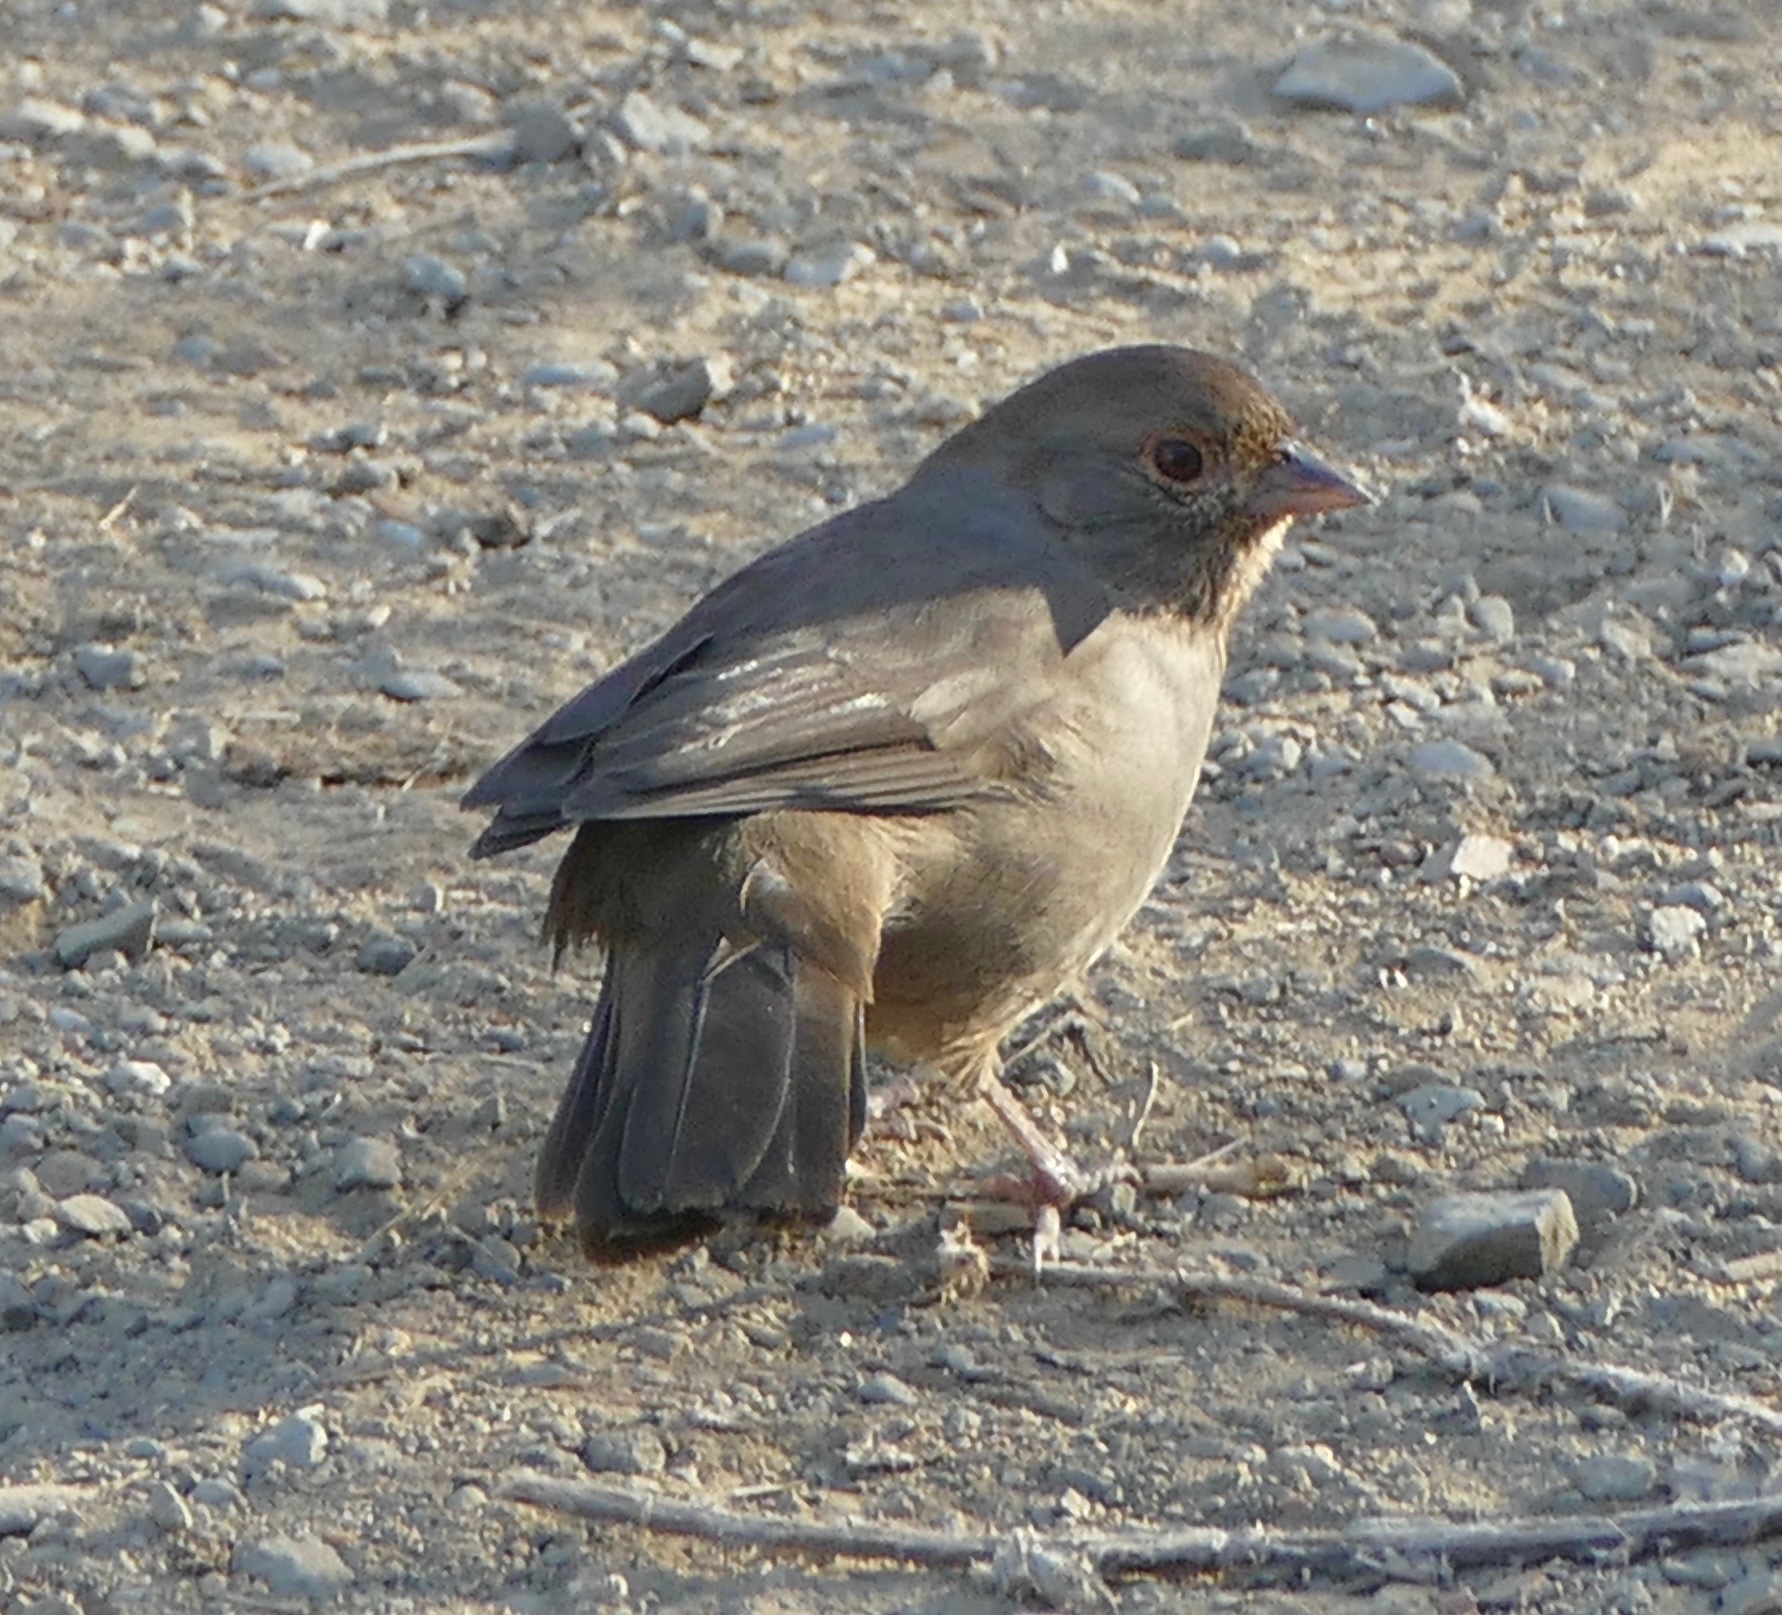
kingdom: Animalia
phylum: Chordata
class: Aves
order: Passeriformes
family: Passerellidae
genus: Melozone
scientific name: Melozone crissalis
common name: California towhee
